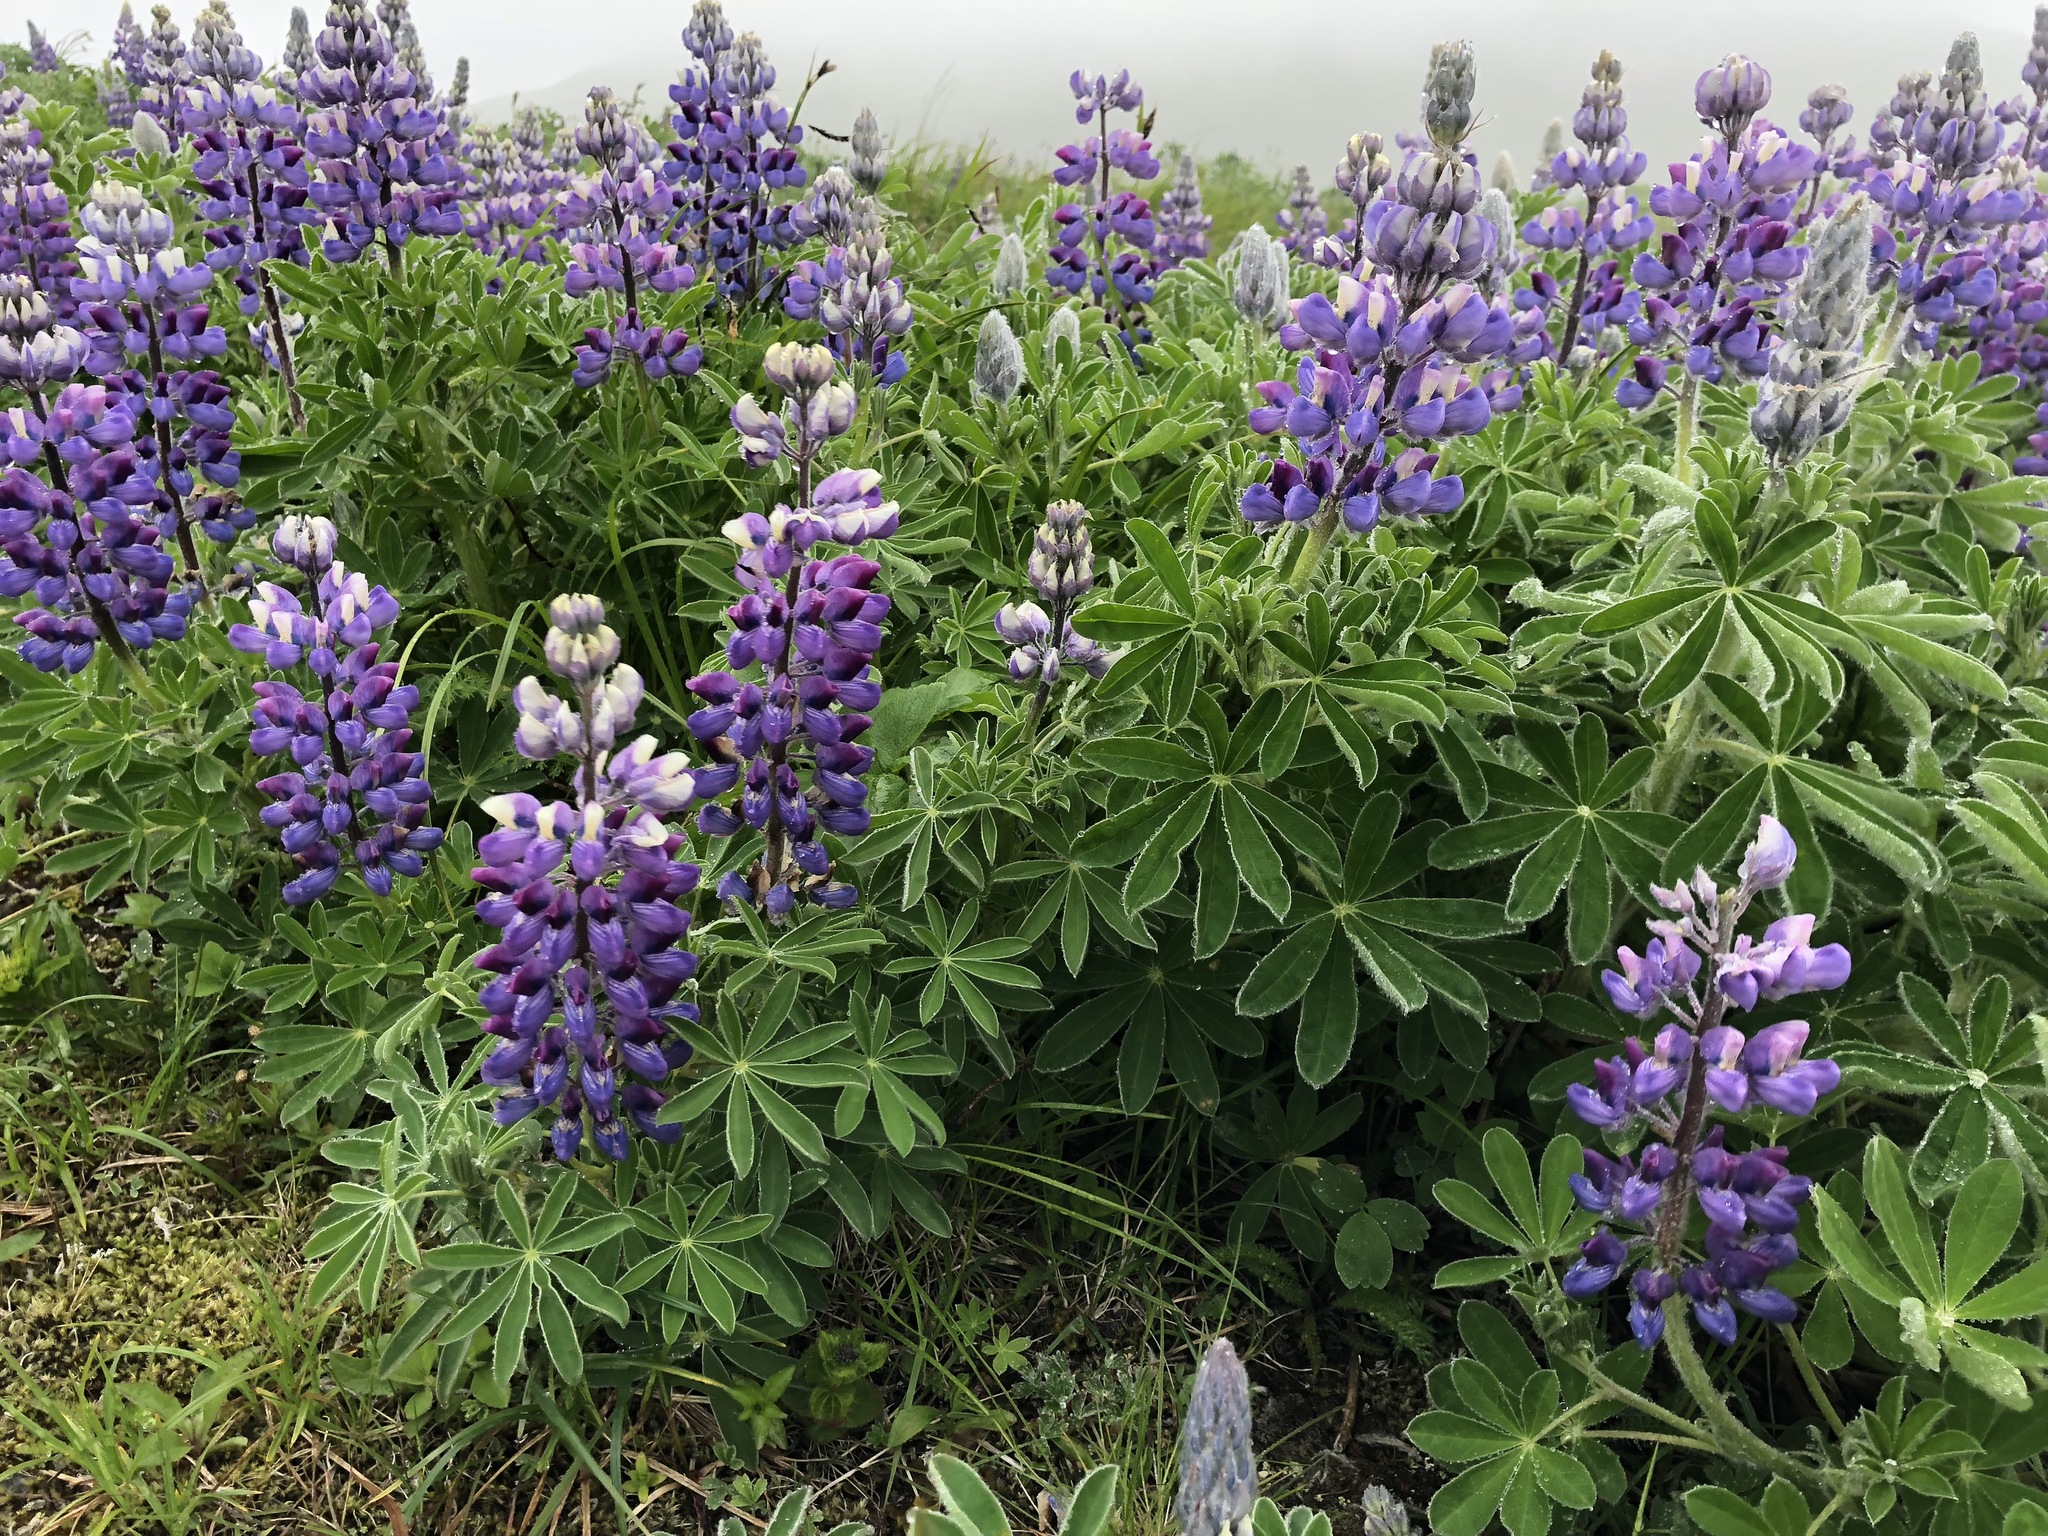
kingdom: Plantae
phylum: Tracheophyta
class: Magnoliopsida
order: Fabales
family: Fabaceae
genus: Lupinus
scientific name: Lupinus nootkatensis
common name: Nootka lupine
